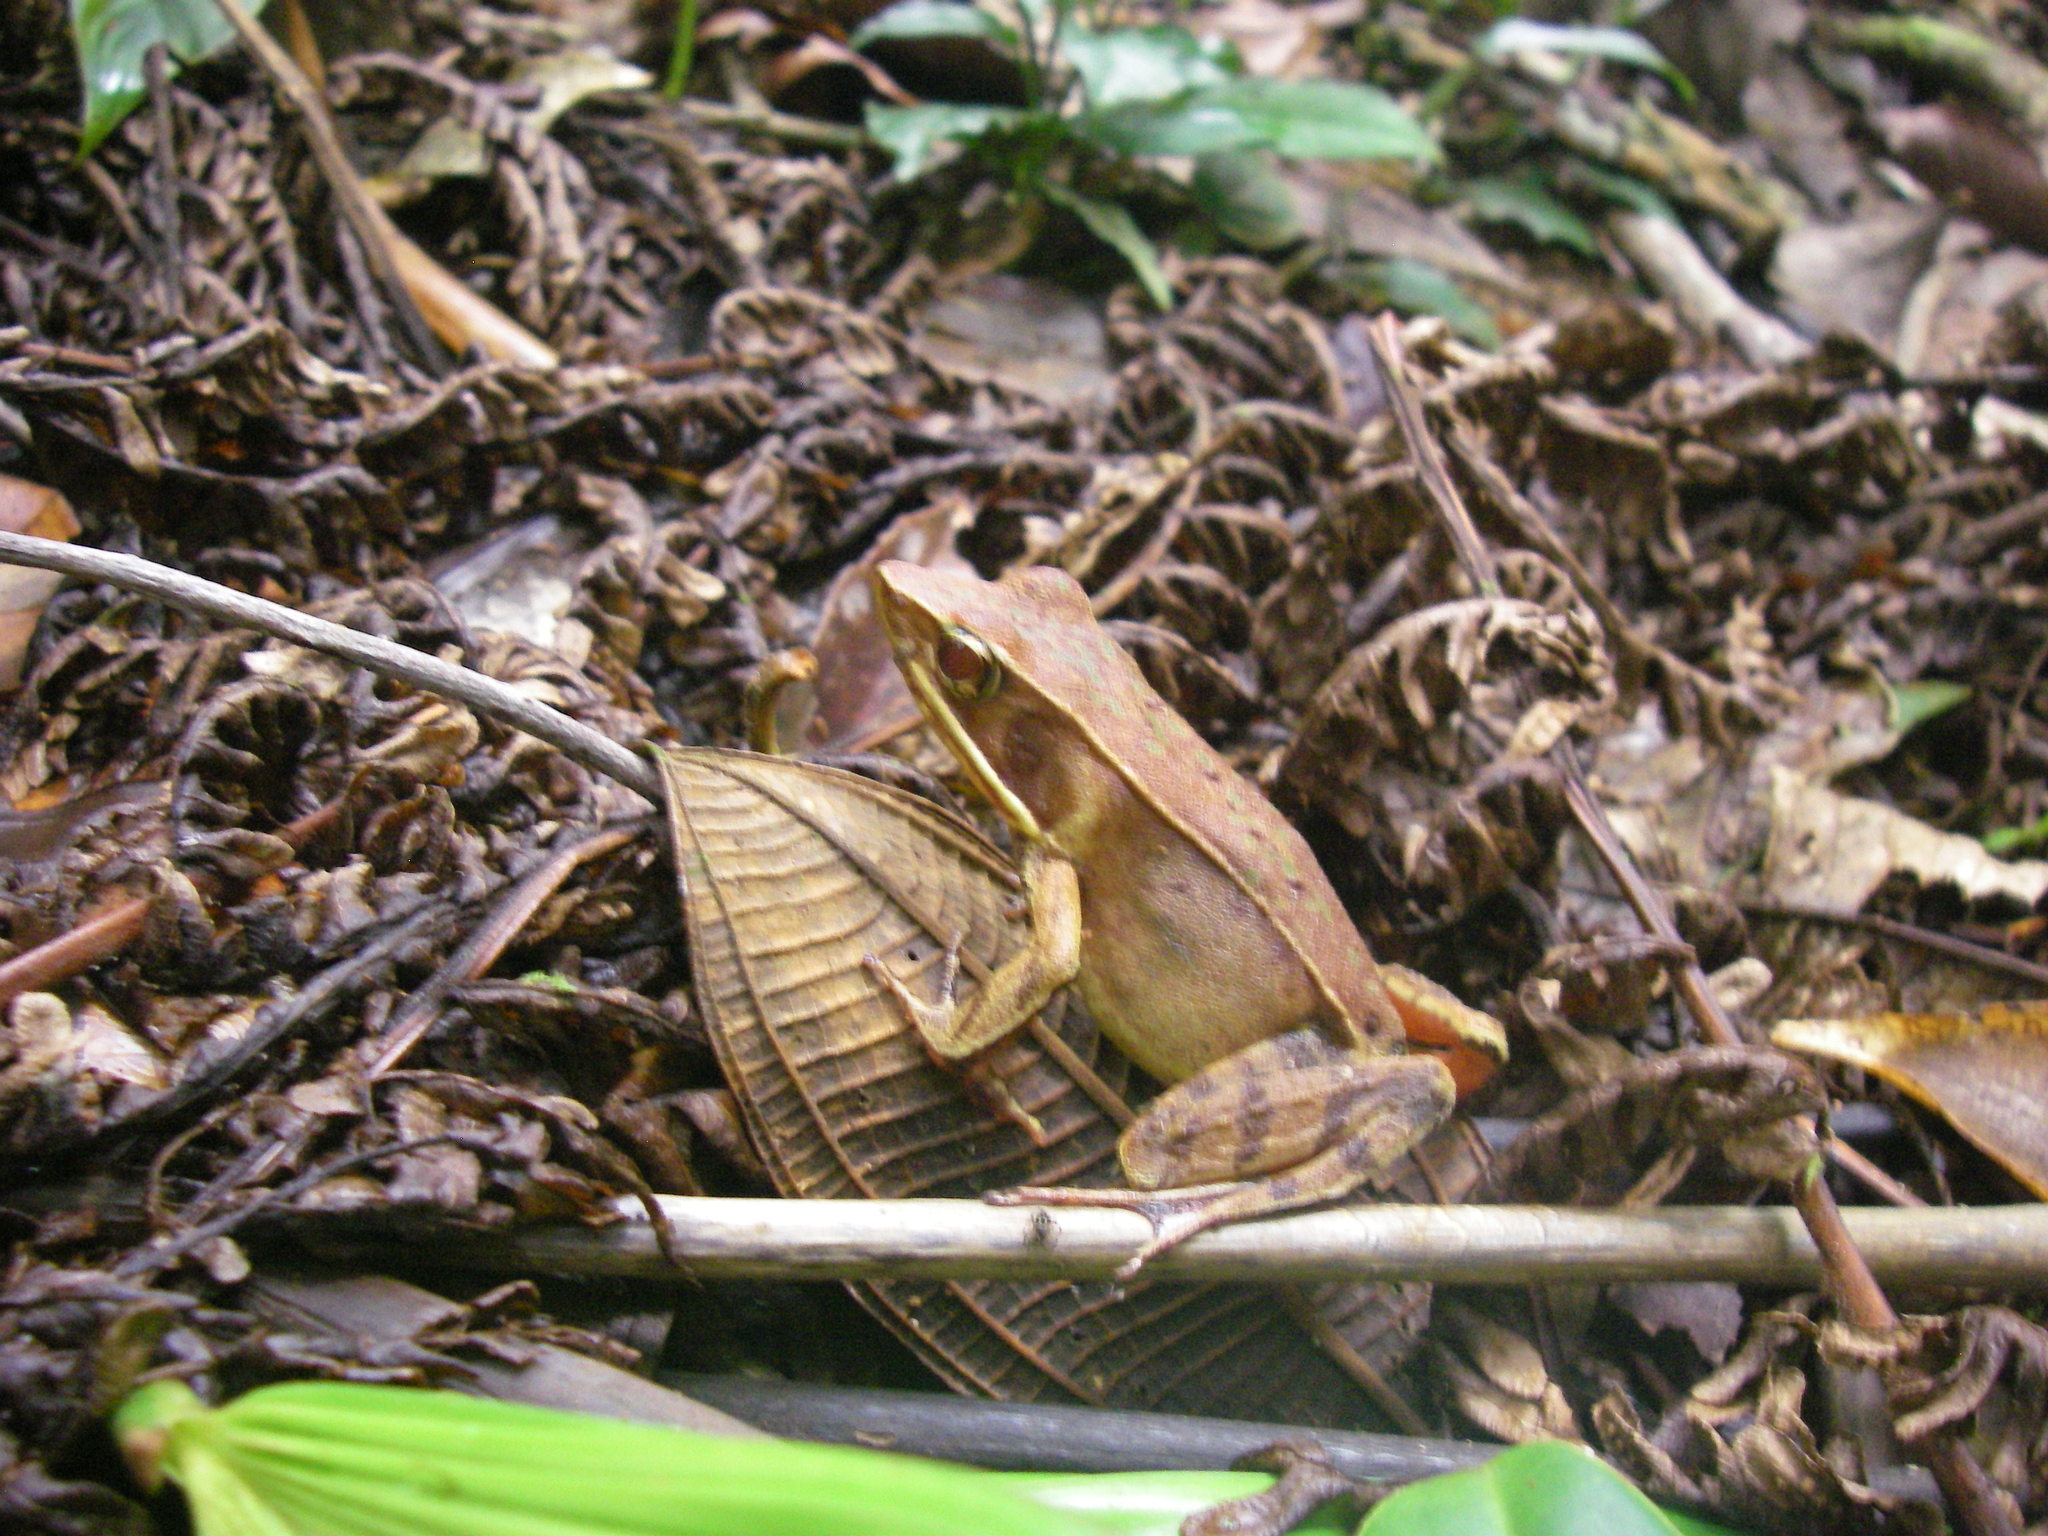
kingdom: Animalia
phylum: Chordata
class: Amphibia
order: Anura
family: Ranidae
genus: Lithobates
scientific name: Lithobates warszewitschii
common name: Warszewitsch's frog
